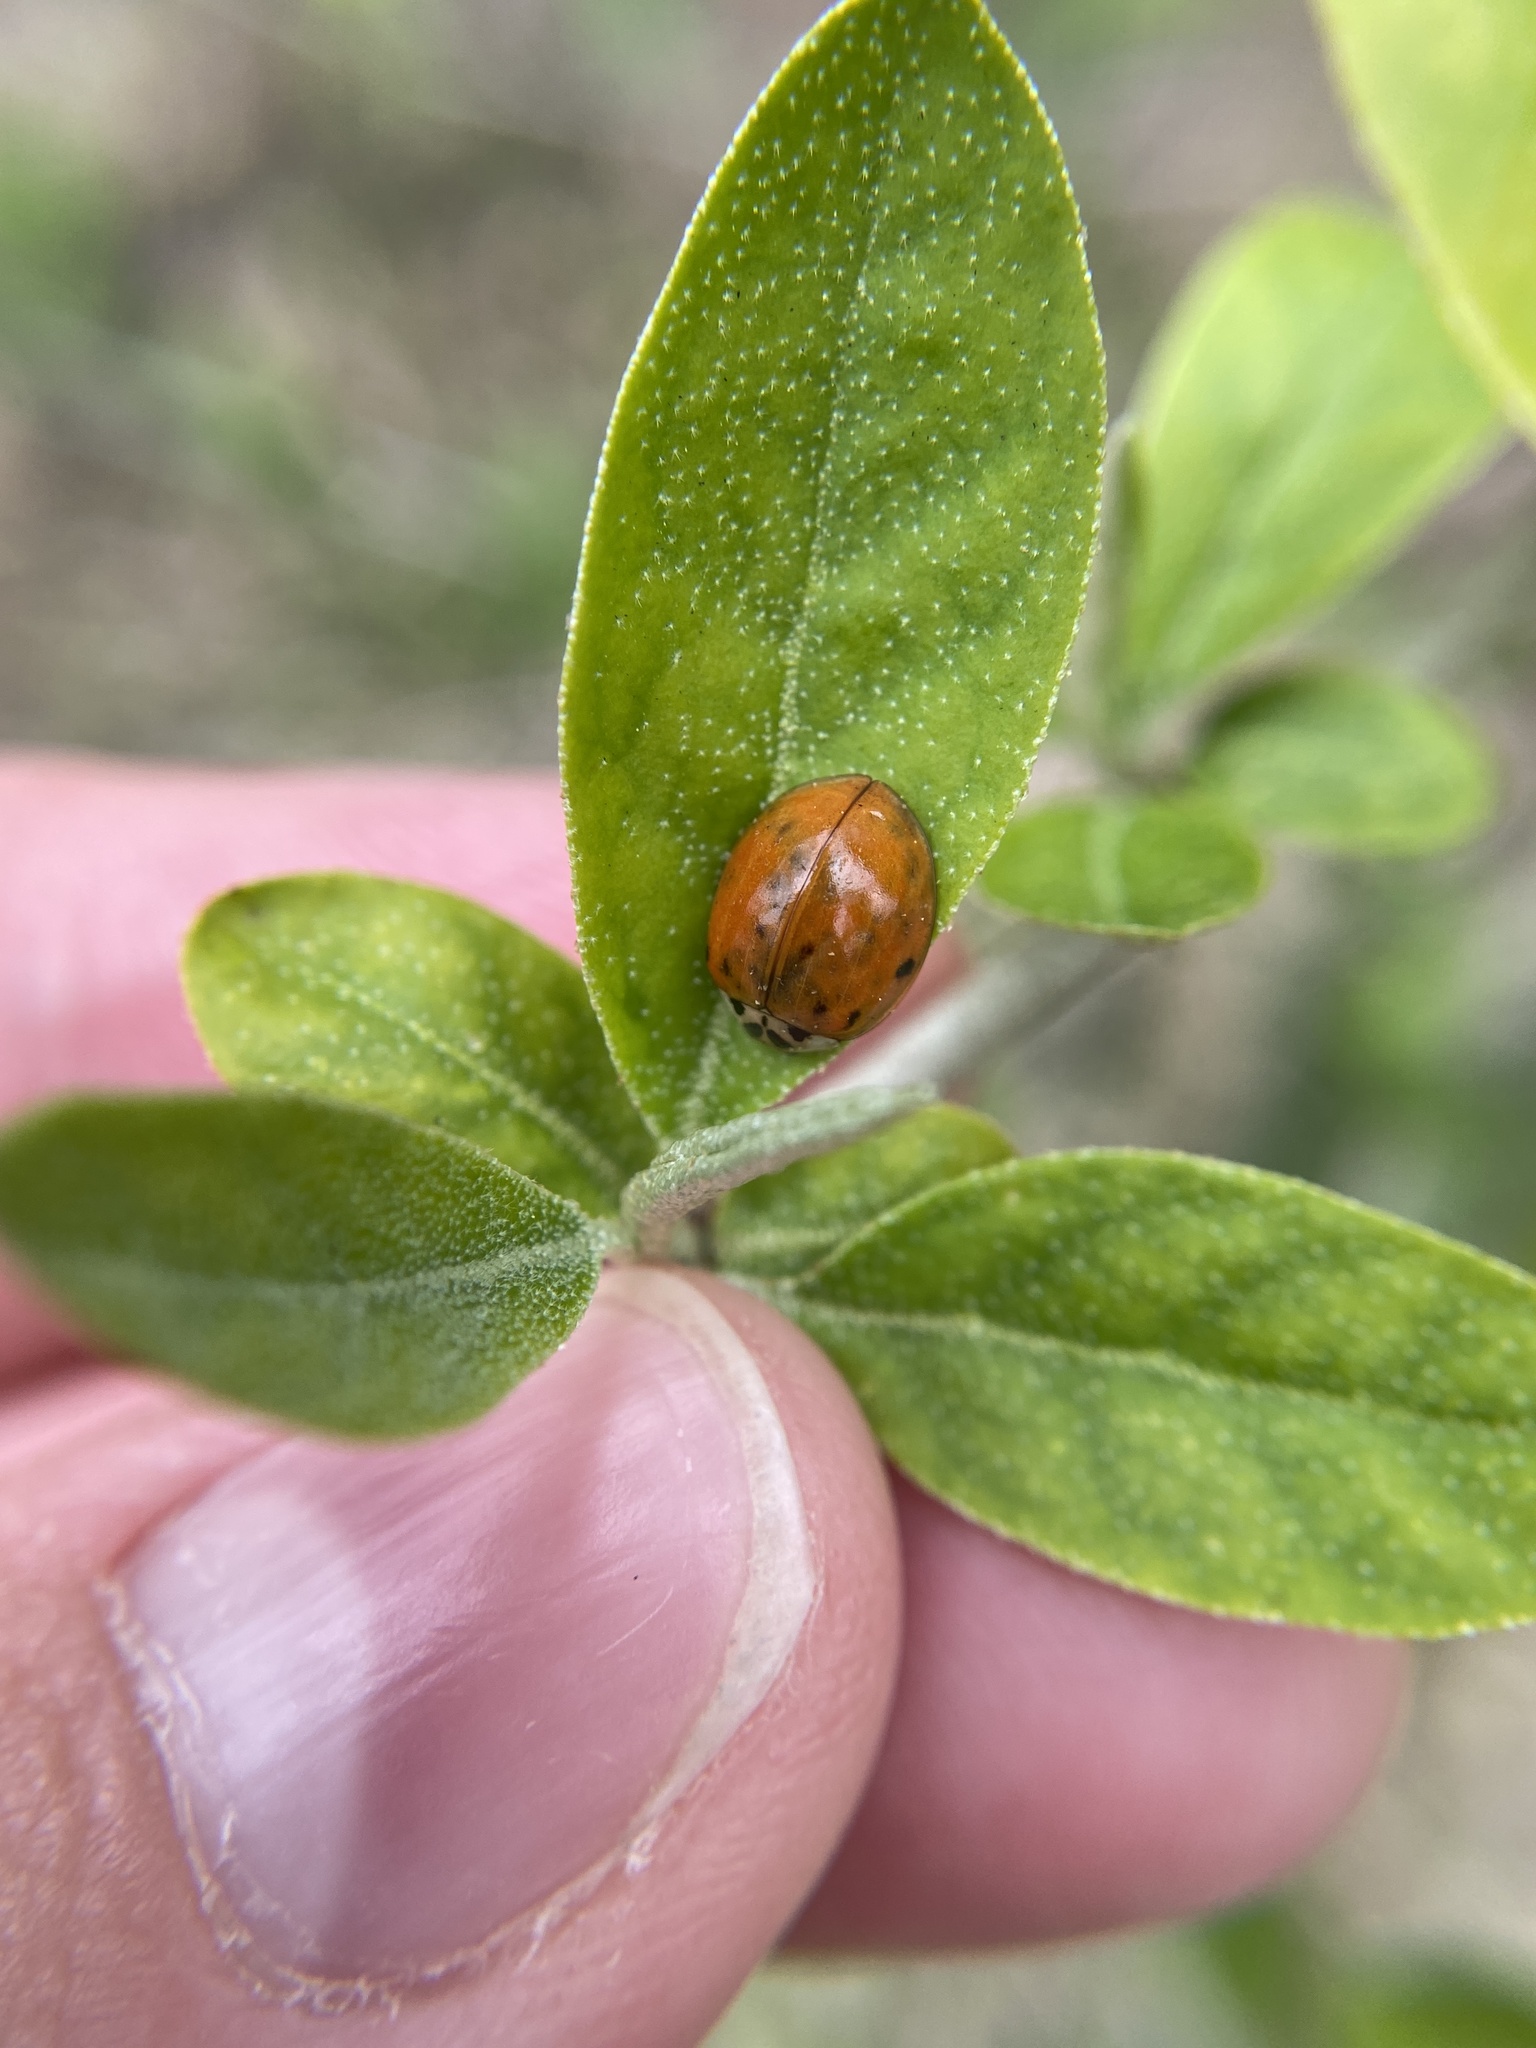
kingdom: Animalia
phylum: Arthropoda
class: Insecta
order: Coleoptera
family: Coccinellidae
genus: Harmonia
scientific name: Harmonia axyridis
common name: Harlequin ladybird
